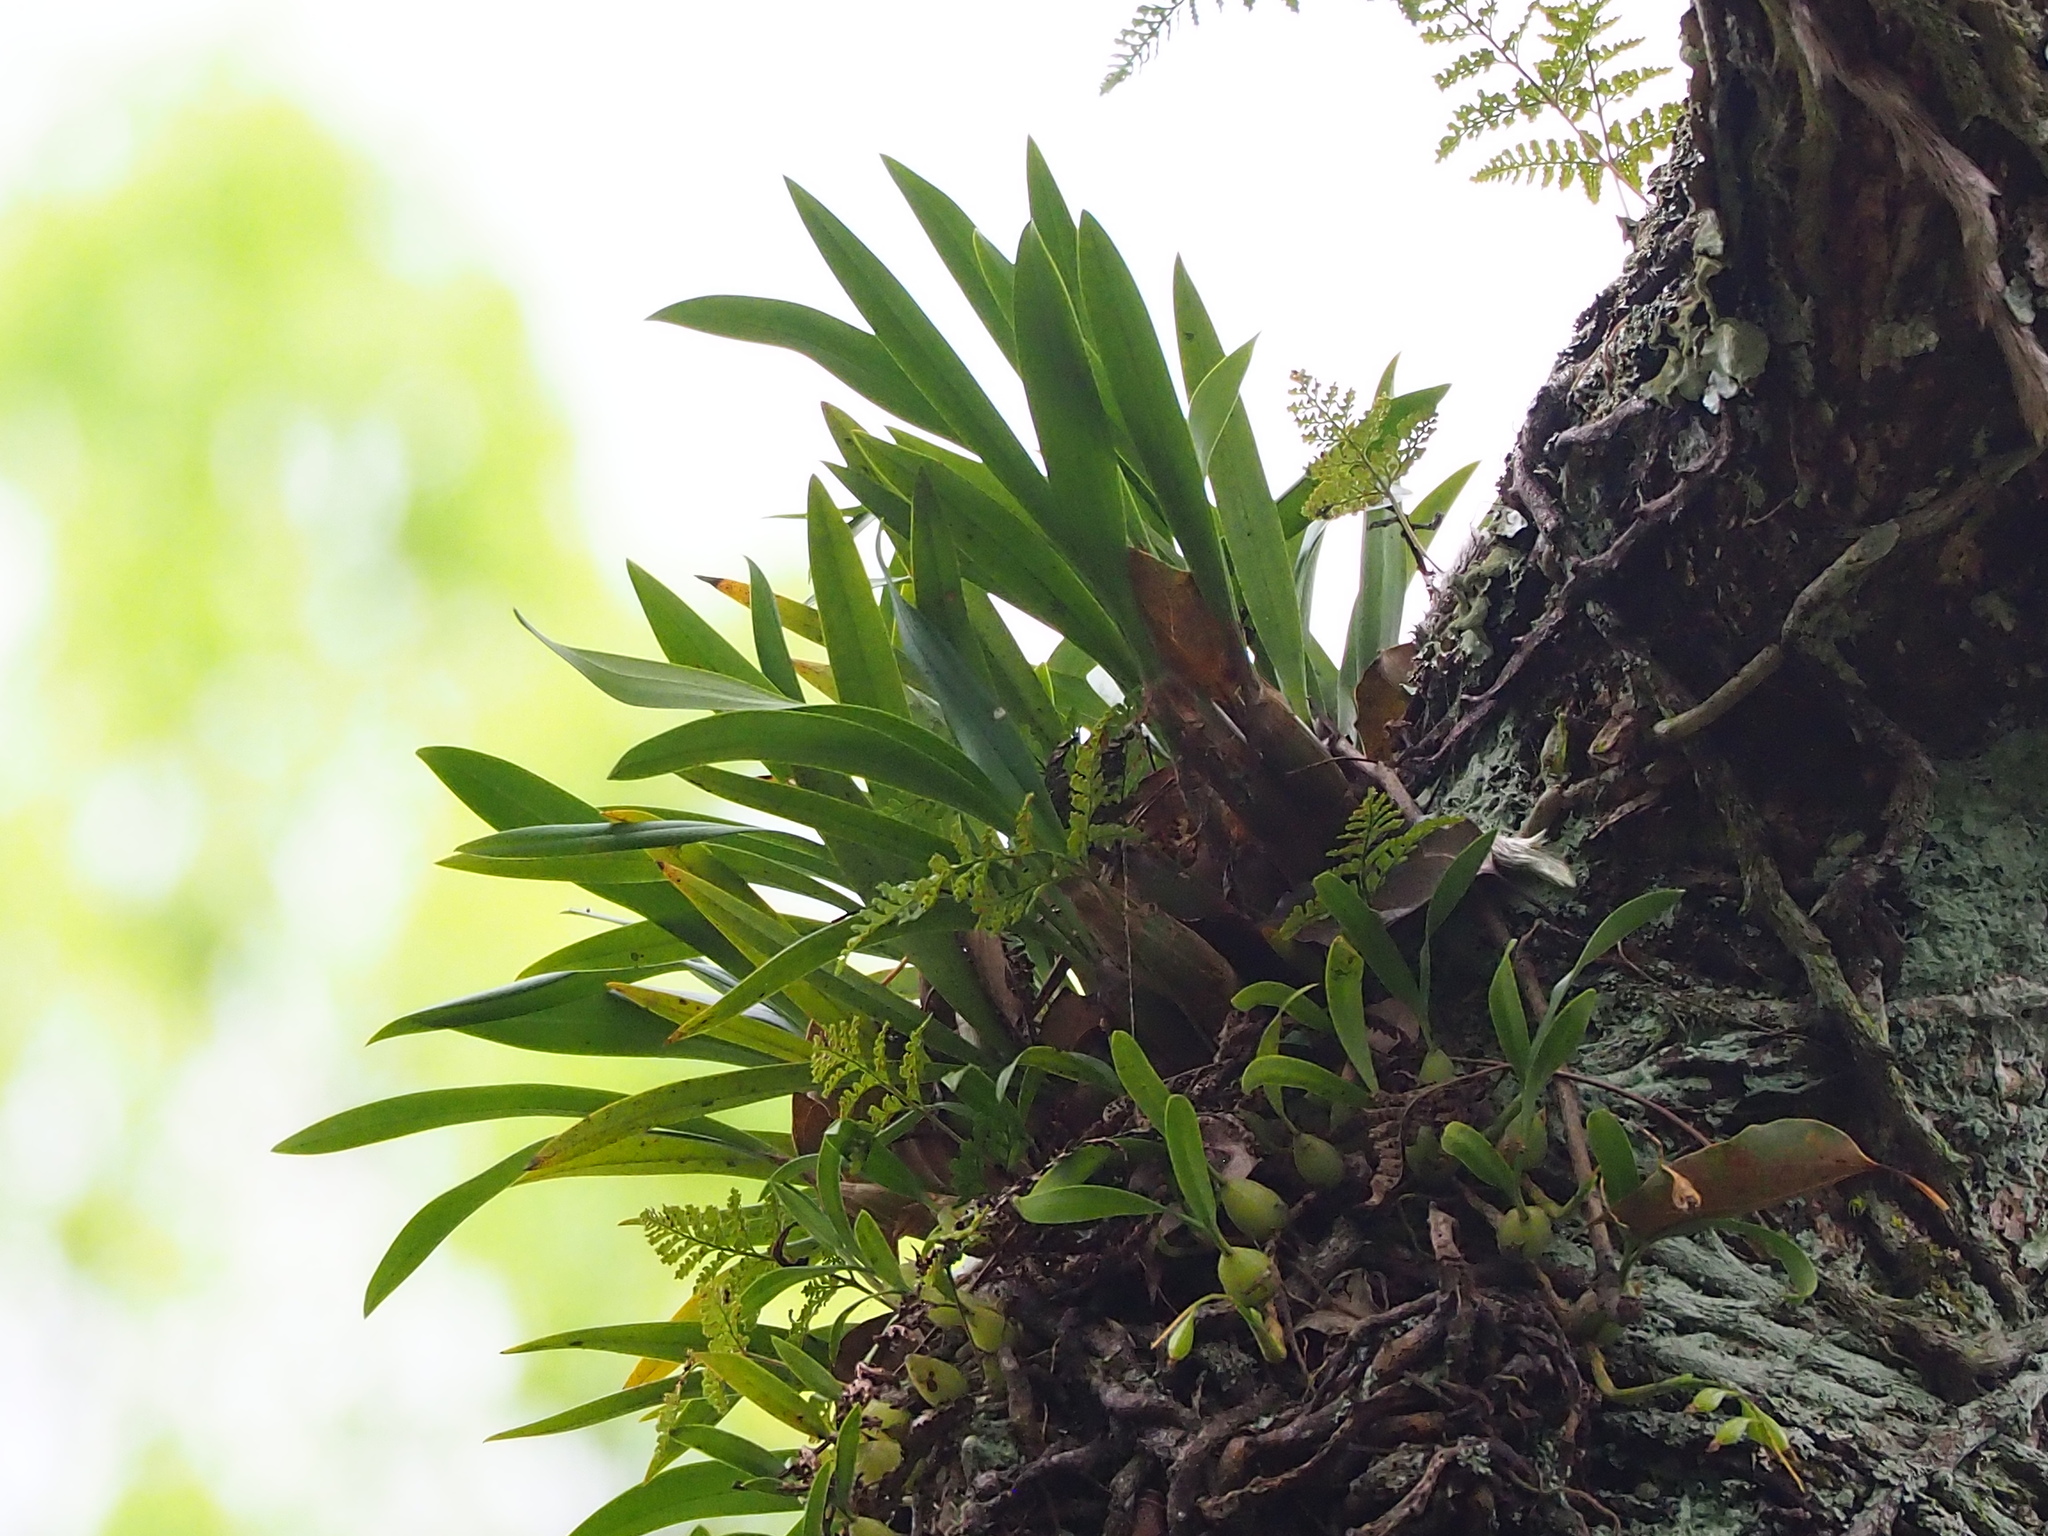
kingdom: Plantae
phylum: Tracheophyta
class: Liliopsida
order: Asparagales
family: Orchidaceae
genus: Pinalia
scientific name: Pinalia amica
